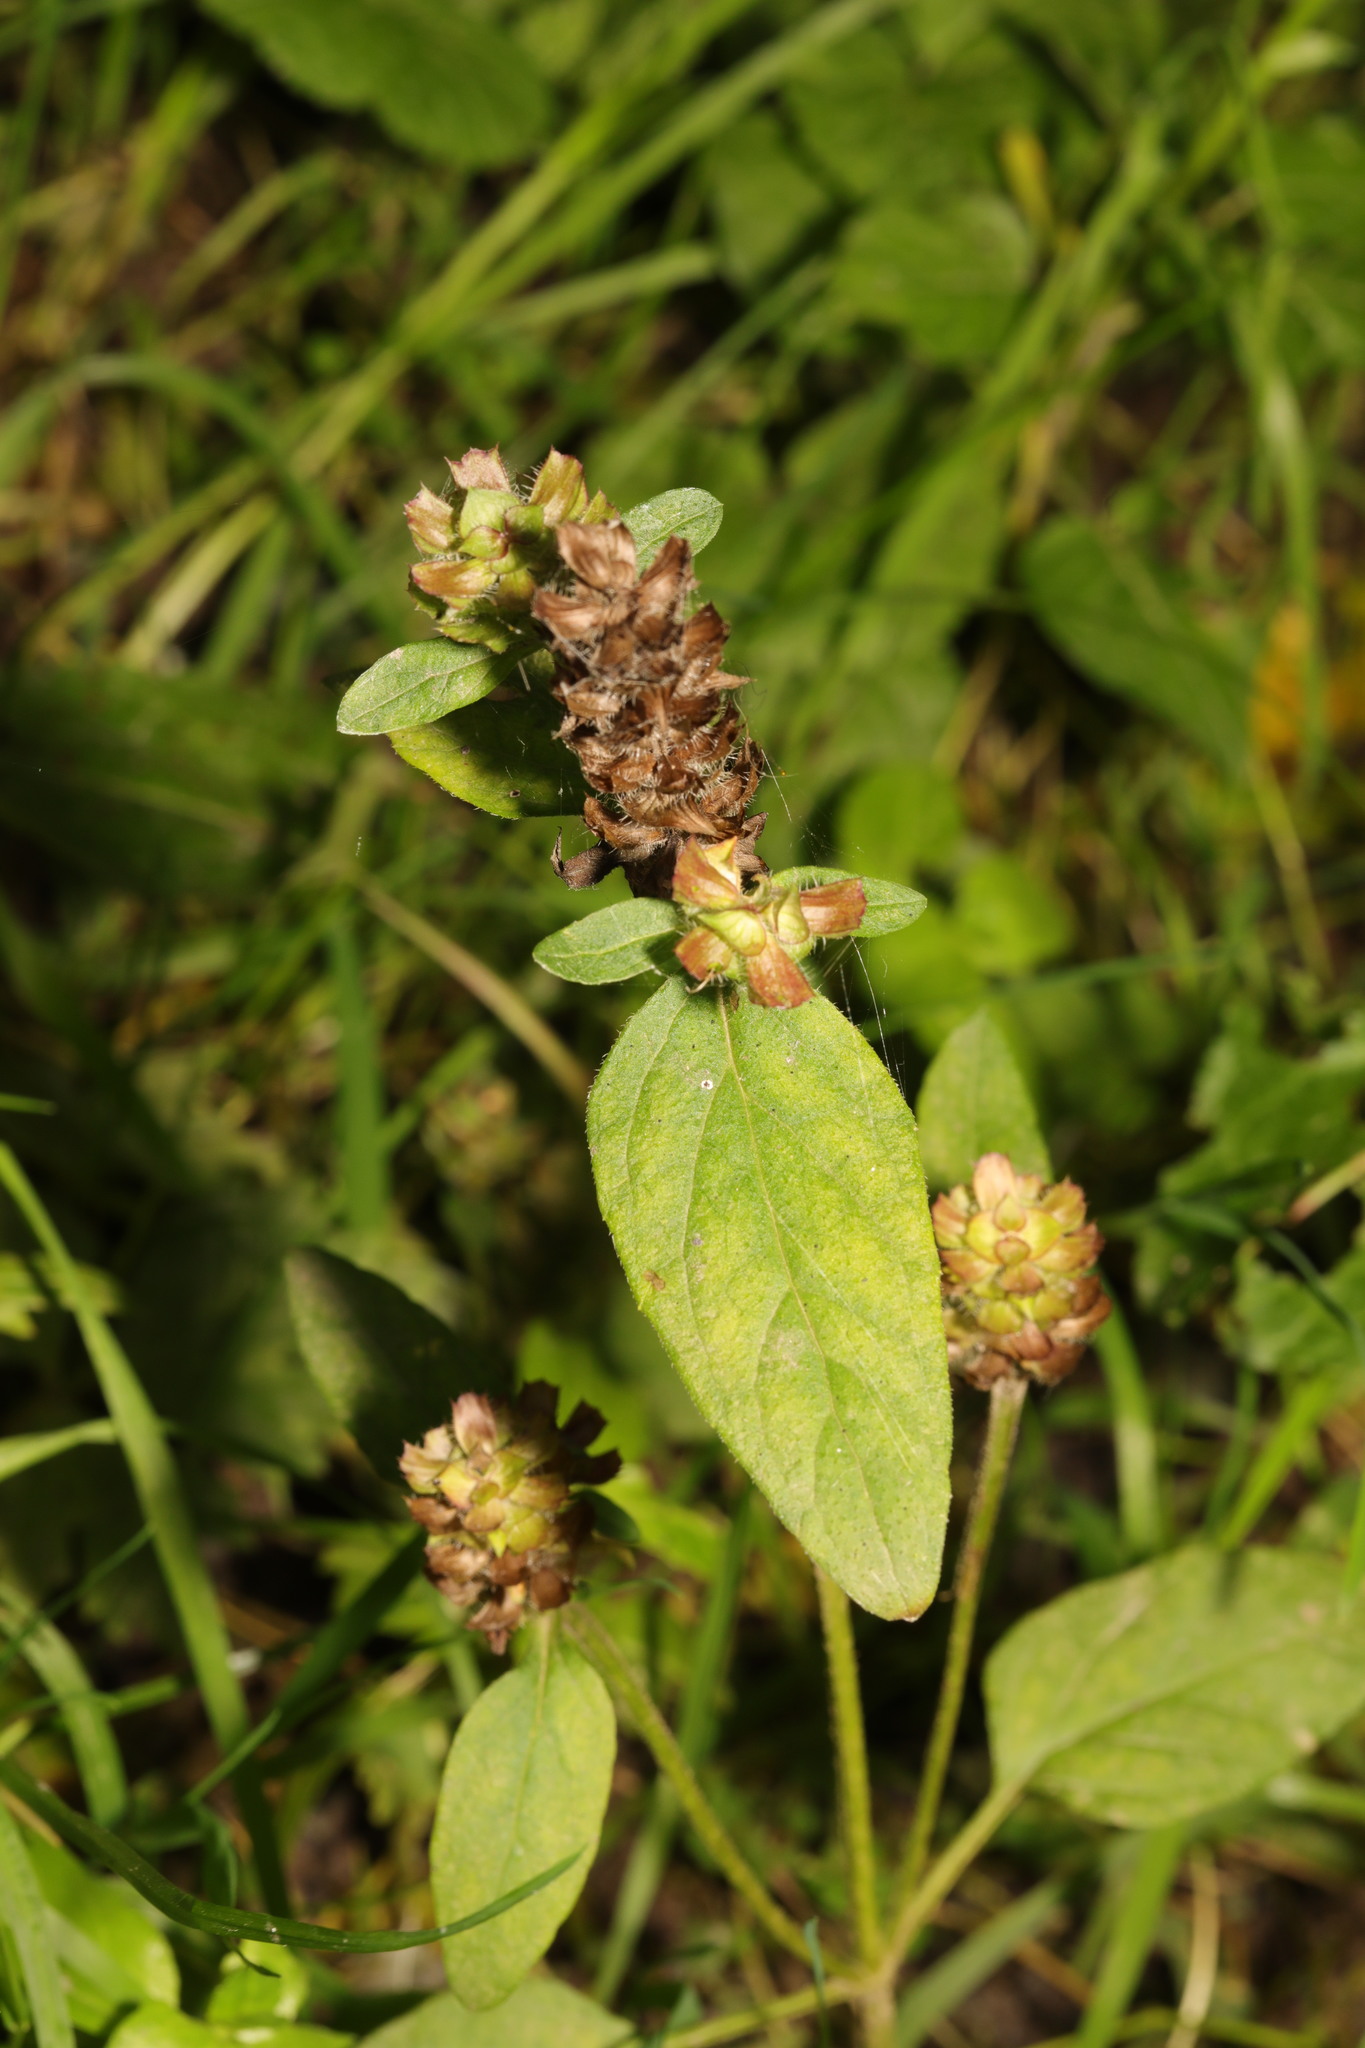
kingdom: Plantae
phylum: Tracheophyta
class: Magnoliopsida
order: Lamiales
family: Lamiaceae
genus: Prunella
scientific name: Prunella vulgaris
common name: Heal-all
